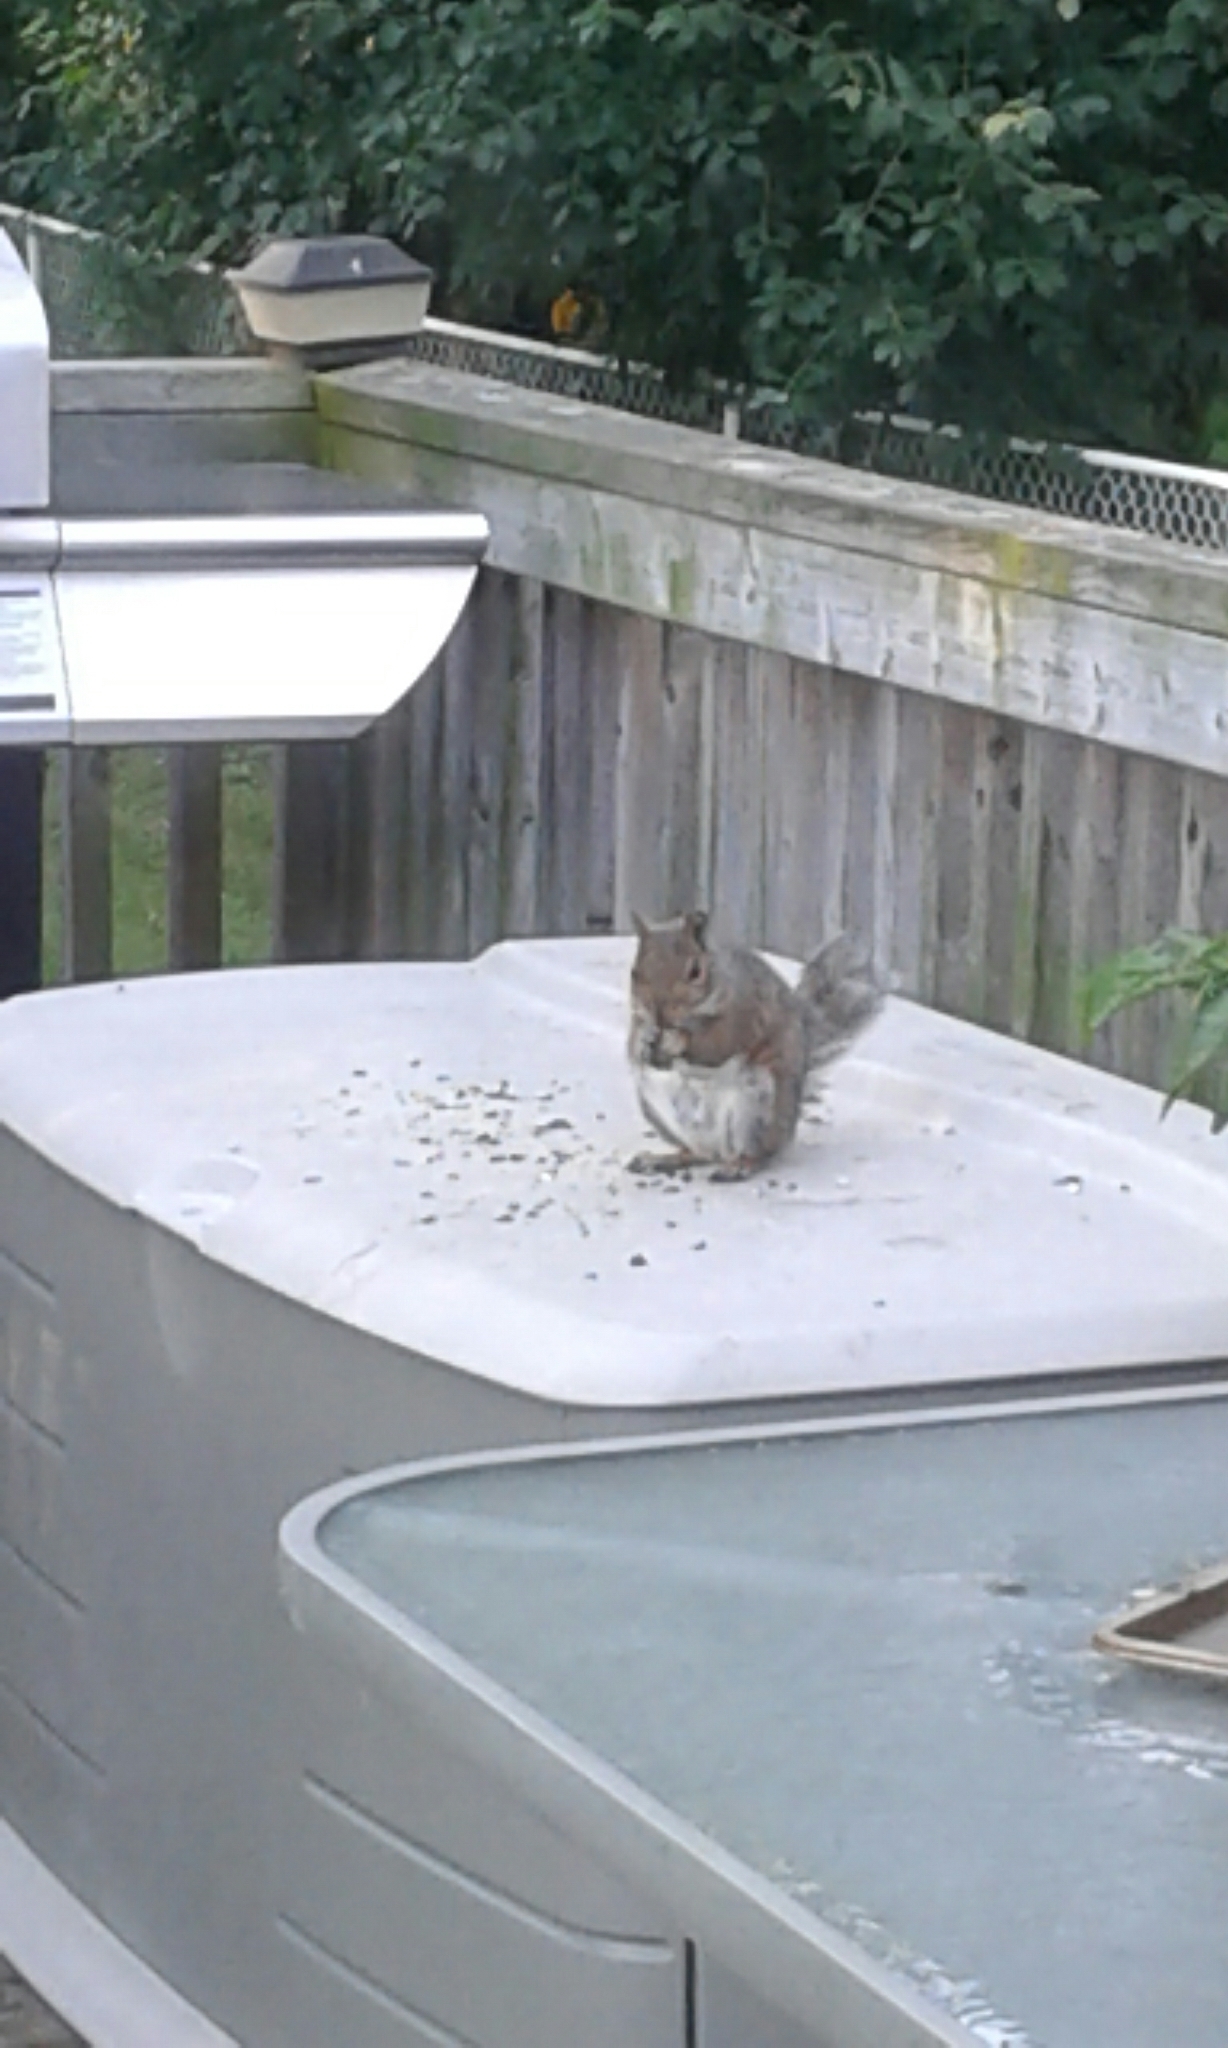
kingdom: Animalia
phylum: Chordata
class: Mammalia
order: Rodentia
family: Sciuridae
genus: Sciurus
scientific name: Sciurus carolinensis
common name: Eastern gray squirrel
